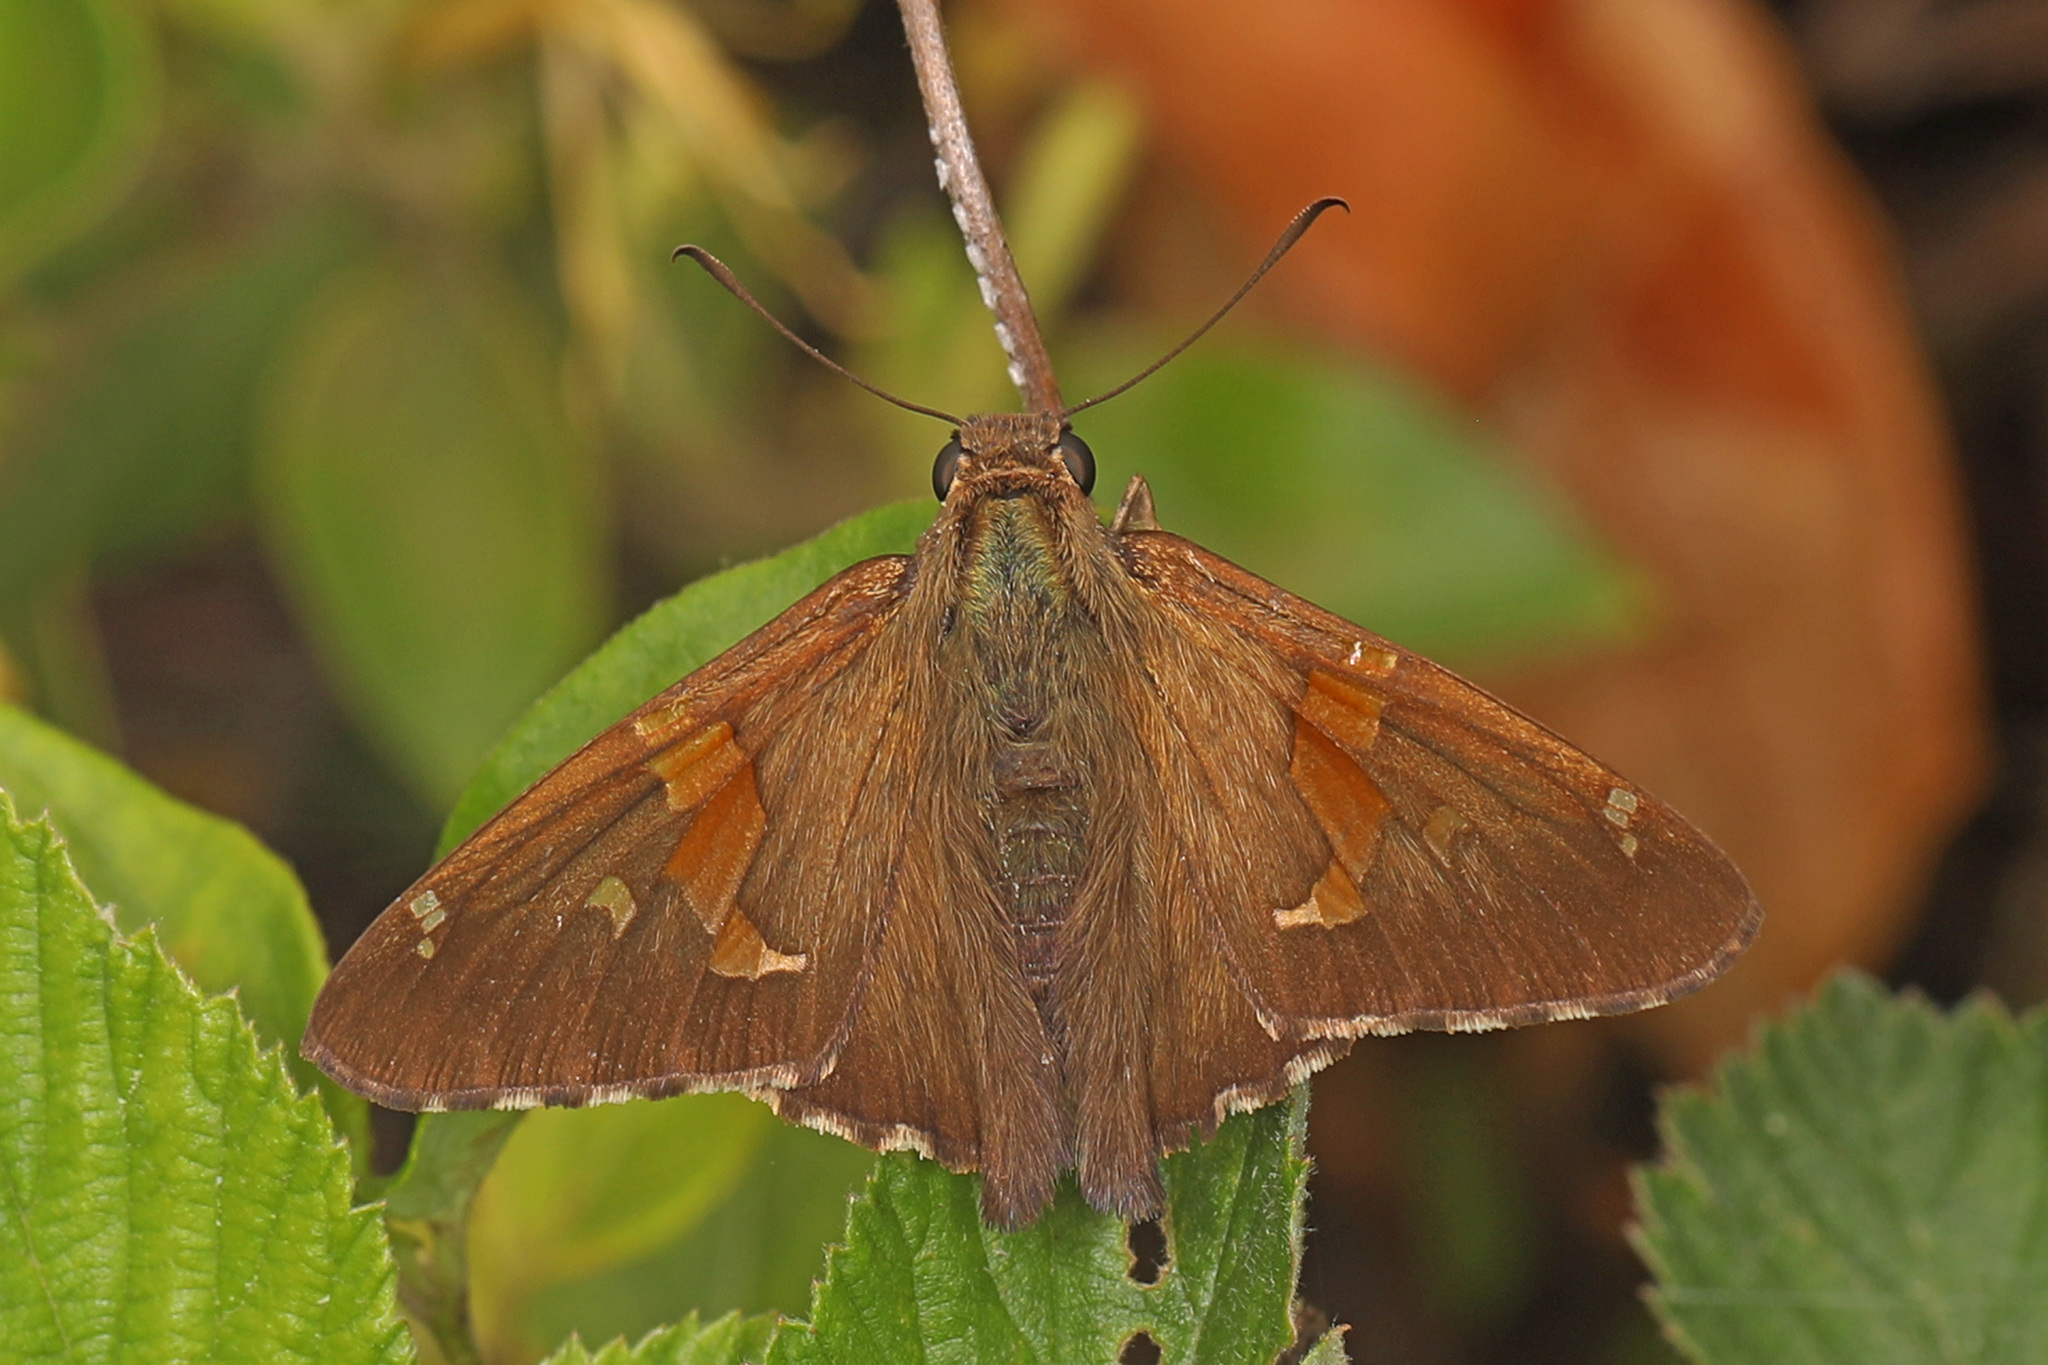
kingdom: Animalia
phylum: Arthropoda
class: Insecta
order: Lepidoptera
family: Hesperiidae
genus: Epargyreus
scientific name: Epargyreus clarus
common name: Silver-spotted skipper
